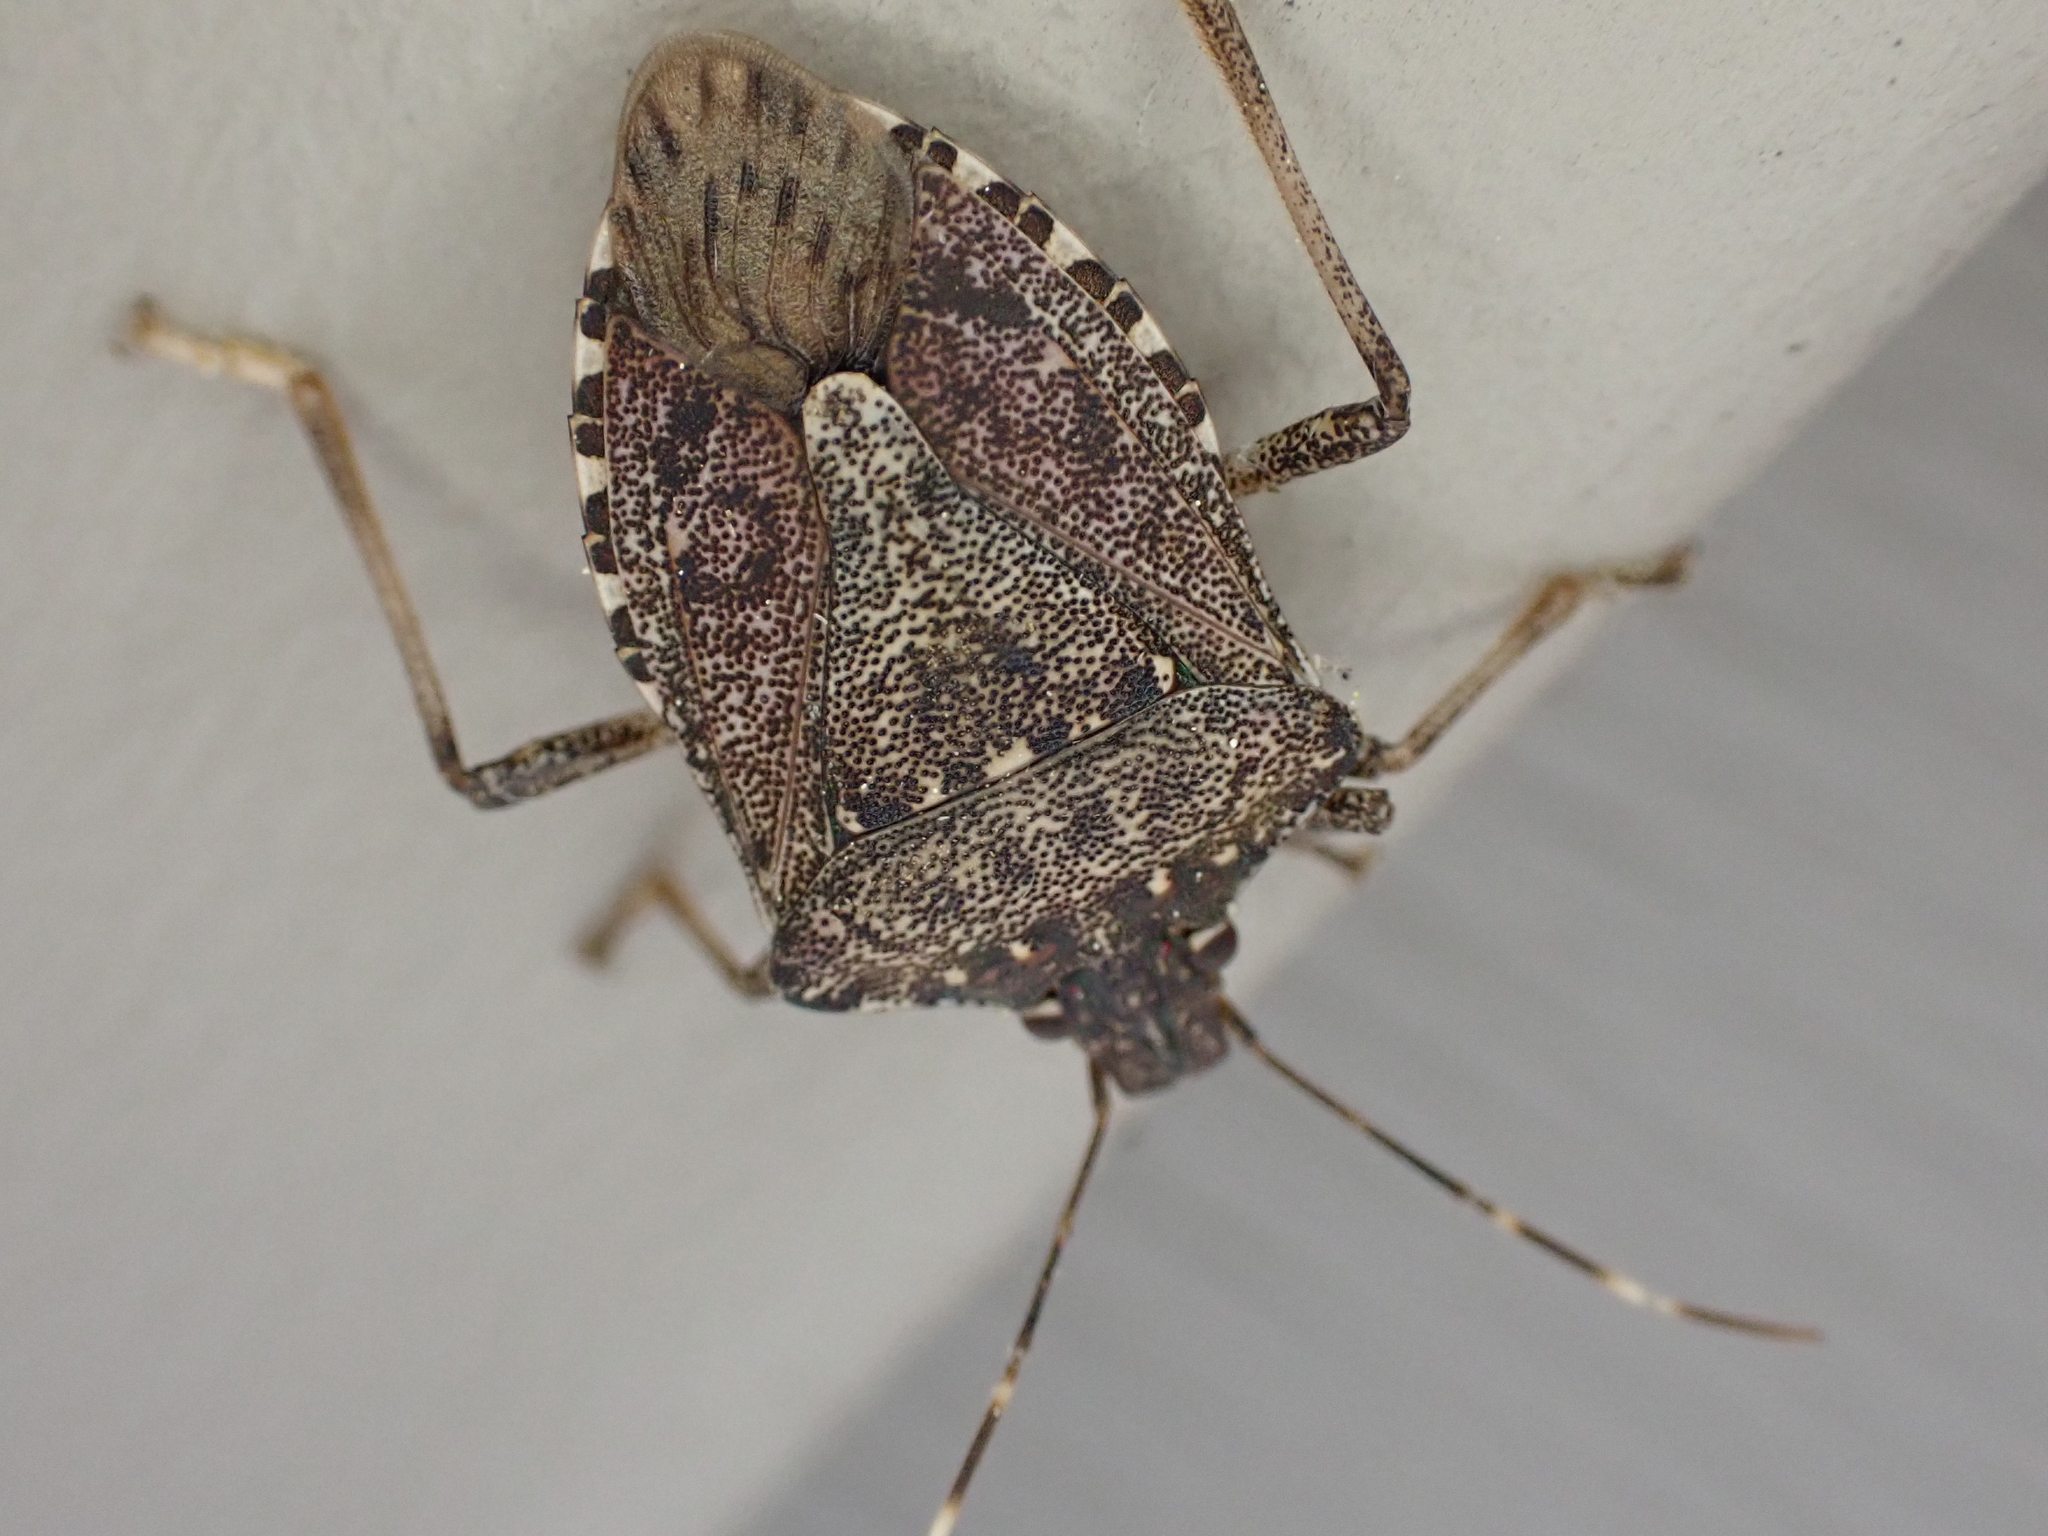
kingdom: Animalia
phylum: Arthropoda
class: Insecta
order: Hemiptera
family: Pentatomidae
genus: Halyomorpha
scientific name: Halyomorpha halys
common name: Brown marmorated stink bug
